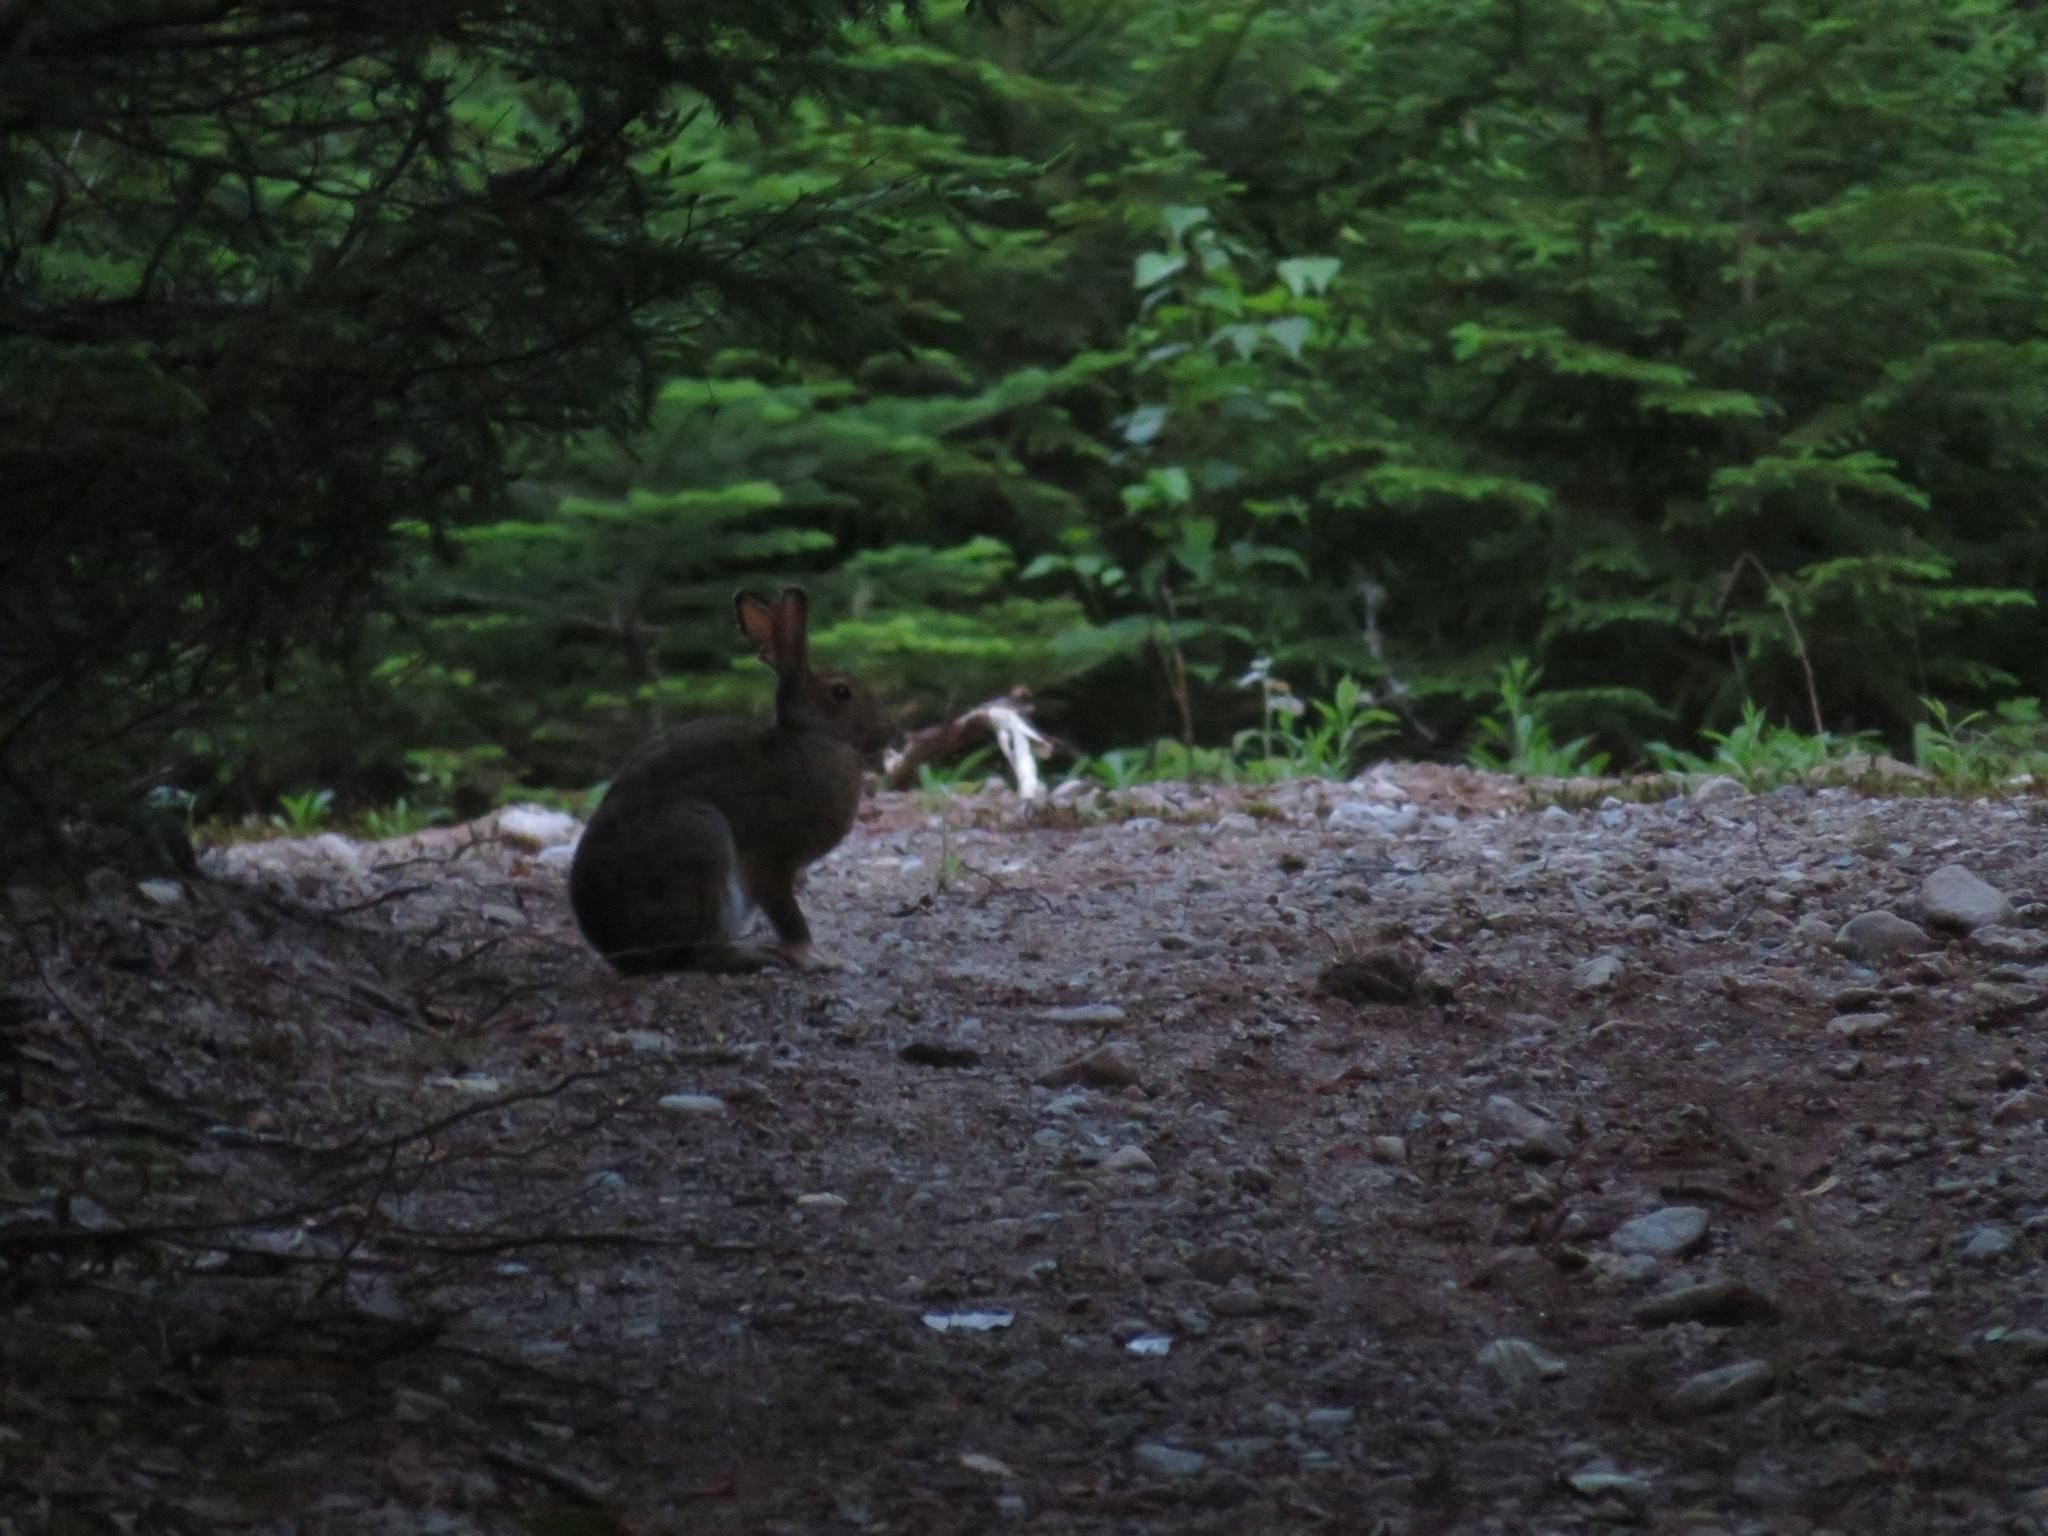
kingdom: Animalia
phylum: Chordata
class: Mammalia
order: Lagomorpha
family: Leporidae
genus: Lepus
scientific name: Lepus americanus
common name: Snowshoe hare
